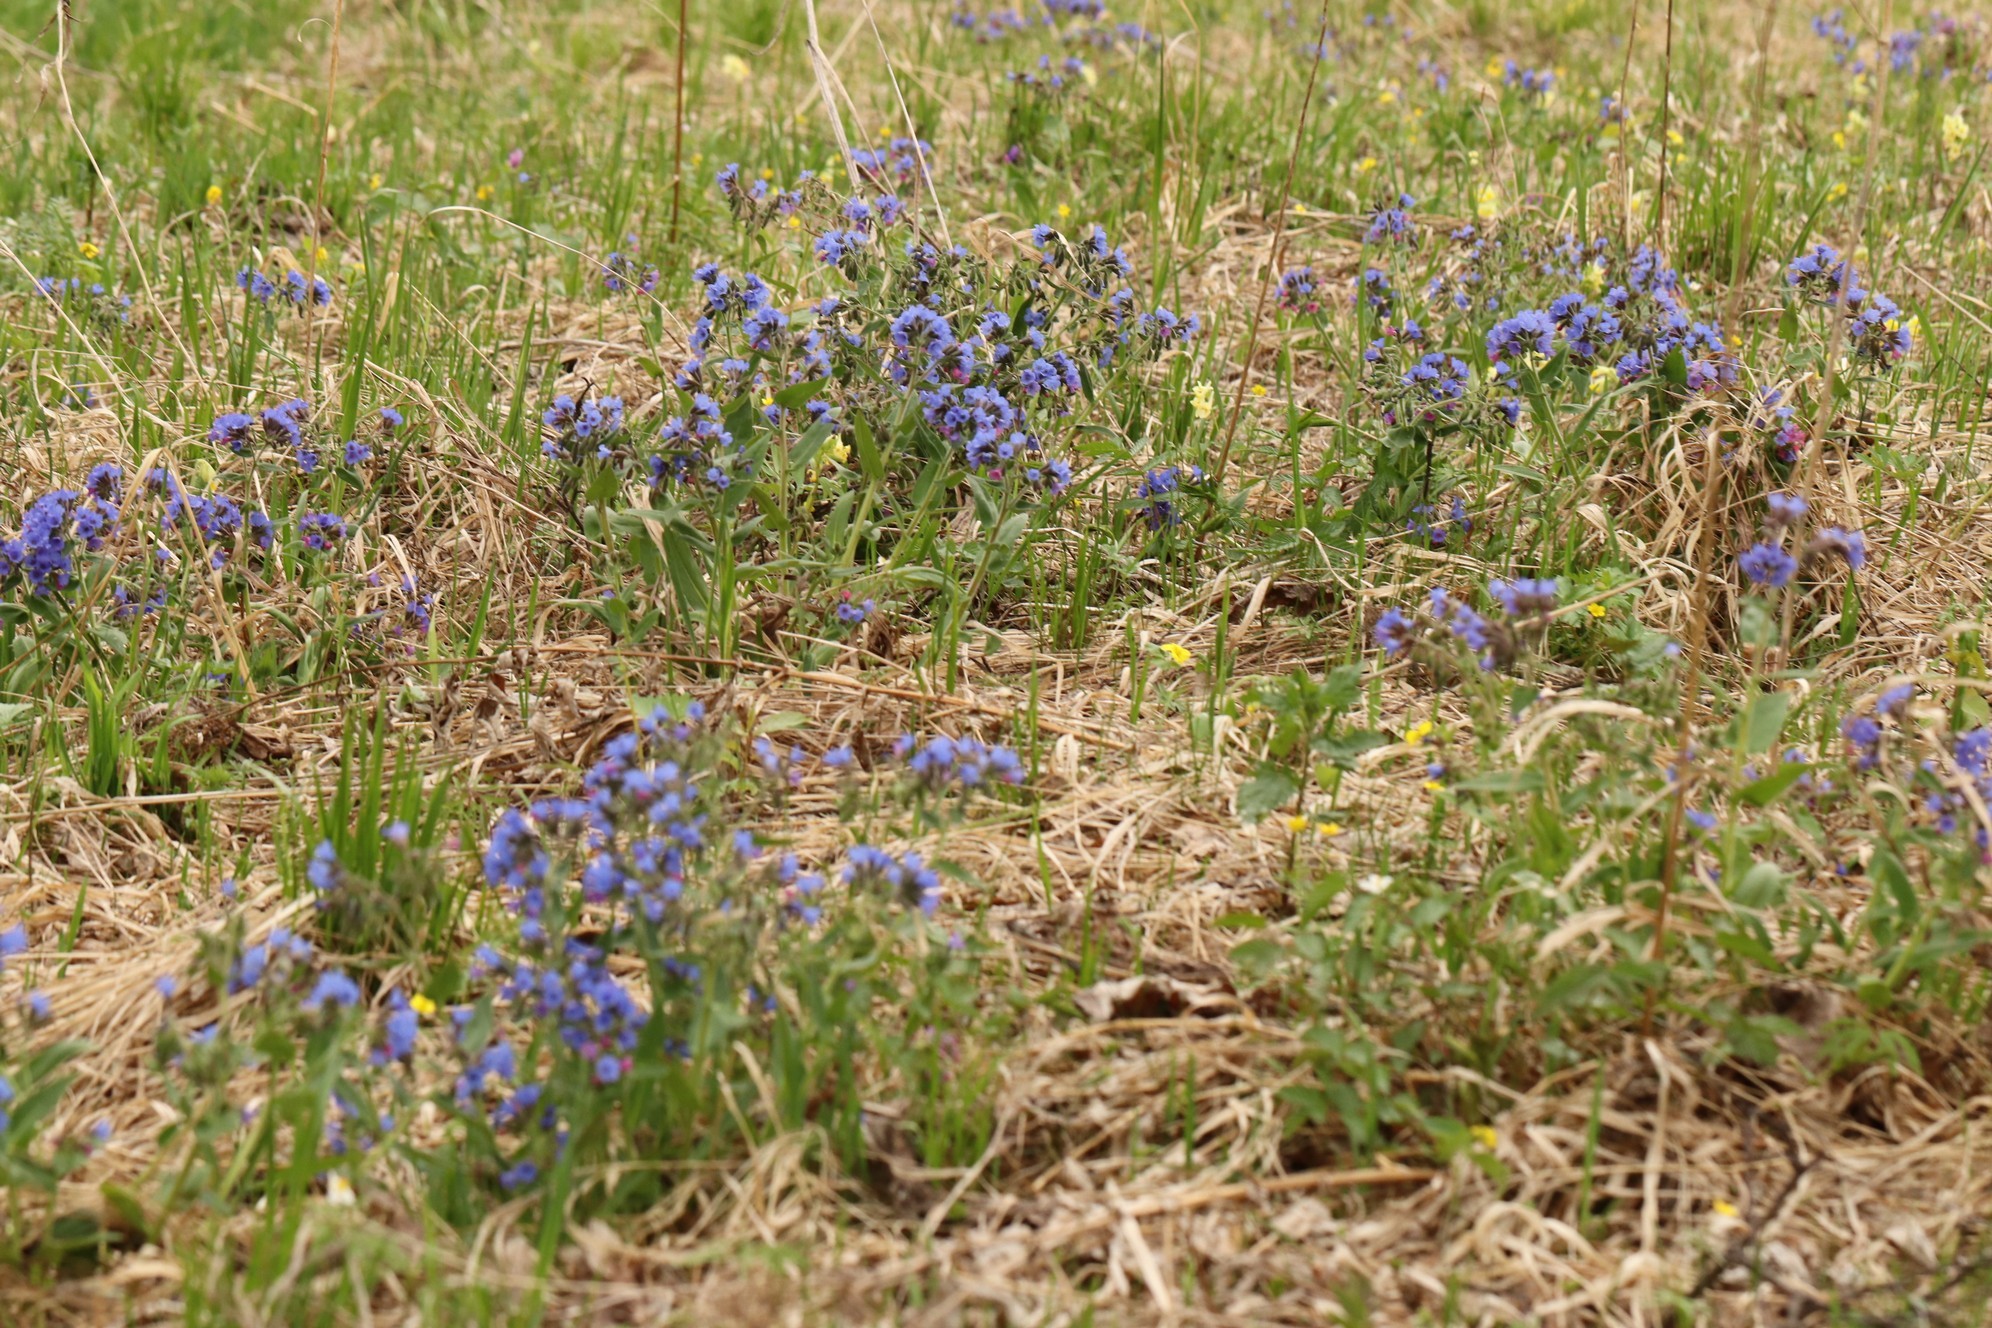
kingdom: Plantae
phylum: Tracheophyta
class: Magnoliopsida
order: Boraginales
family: Boraginaceae
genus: Pulmonaria
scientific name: Pulmonaria mollis
